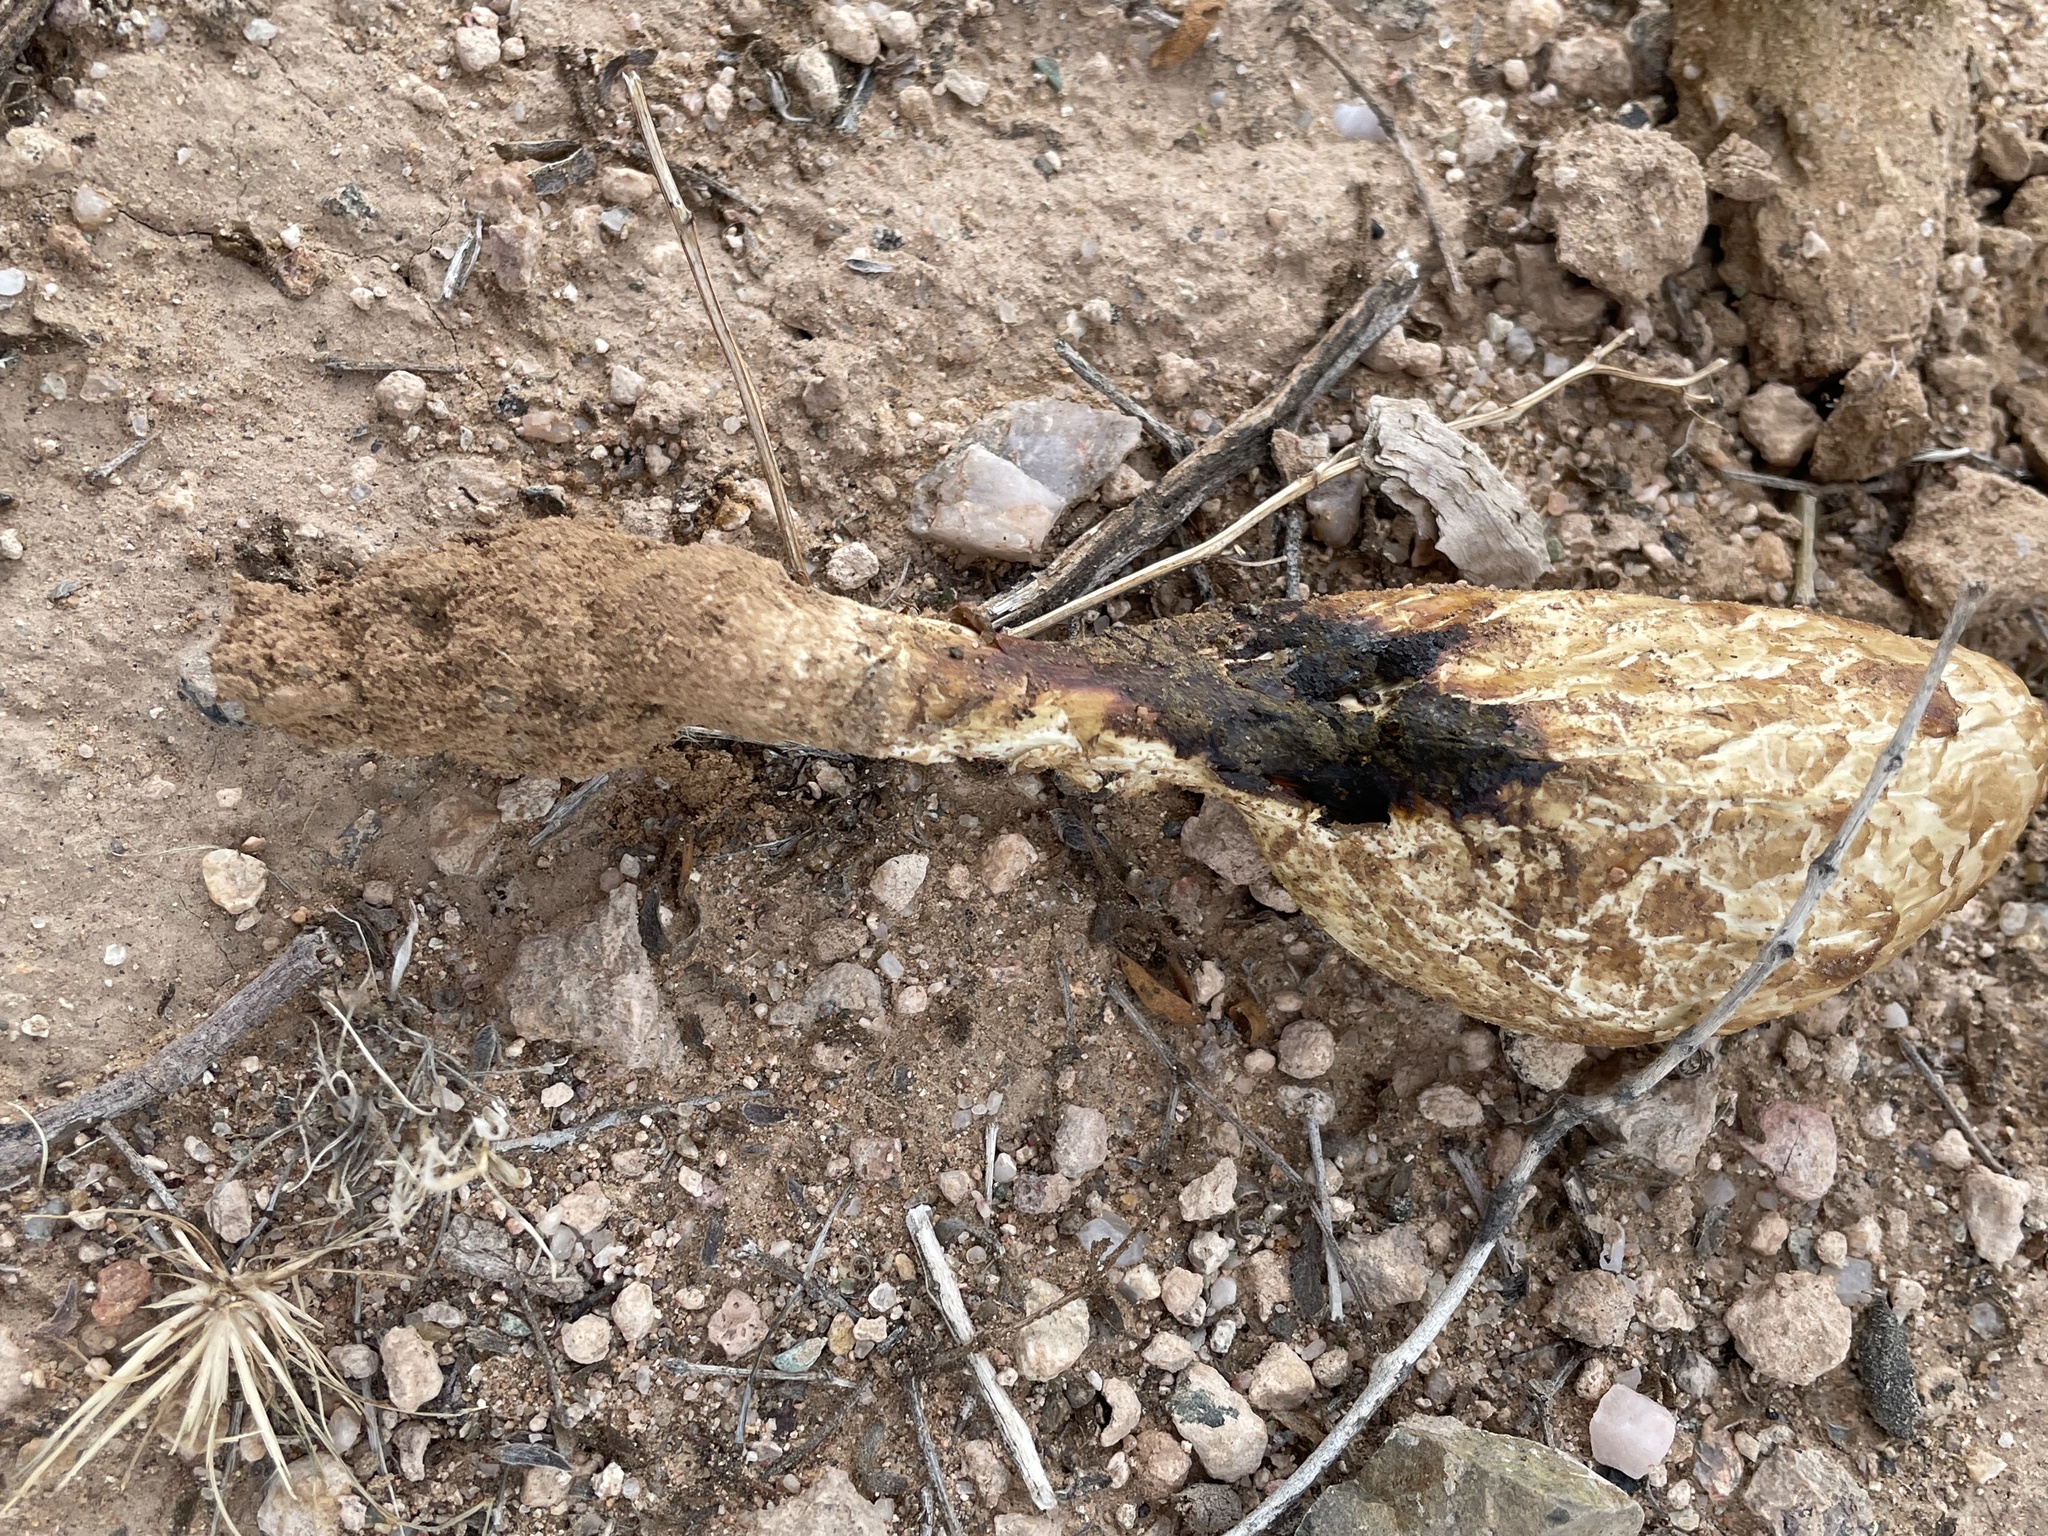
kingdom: Fungi
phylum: Basidiomycota
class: Agaricomycetes
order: Agaricales
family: Agaricaceae
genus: Podaxis
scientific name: Podaxis pistillaris
